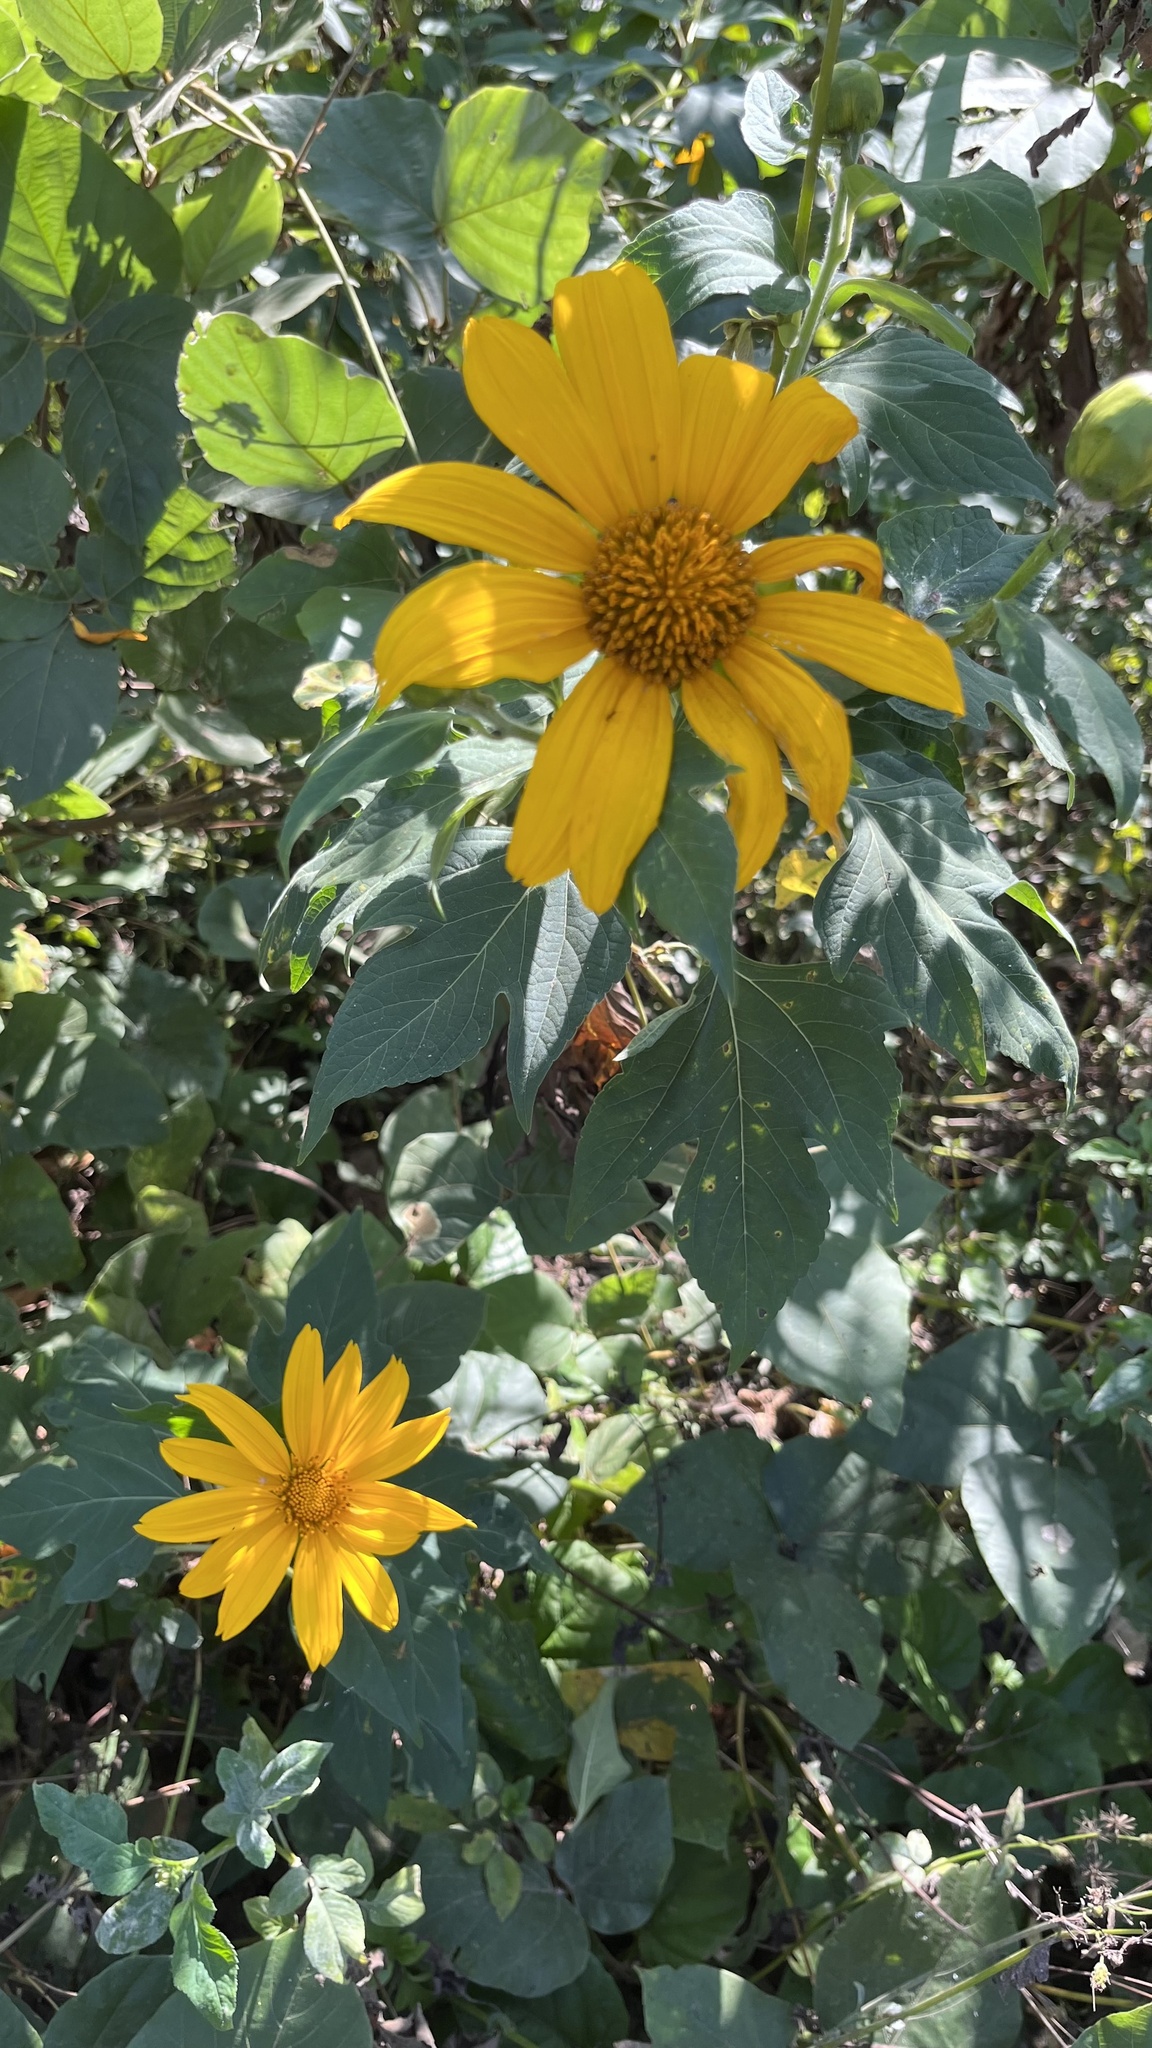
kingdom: Plantae
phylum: Tracheophyta
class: Magnoliopsida
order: Asterales
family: Asteraceae
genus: Tithonia
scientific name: Tithonia diversifolia
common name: Tree marigold
